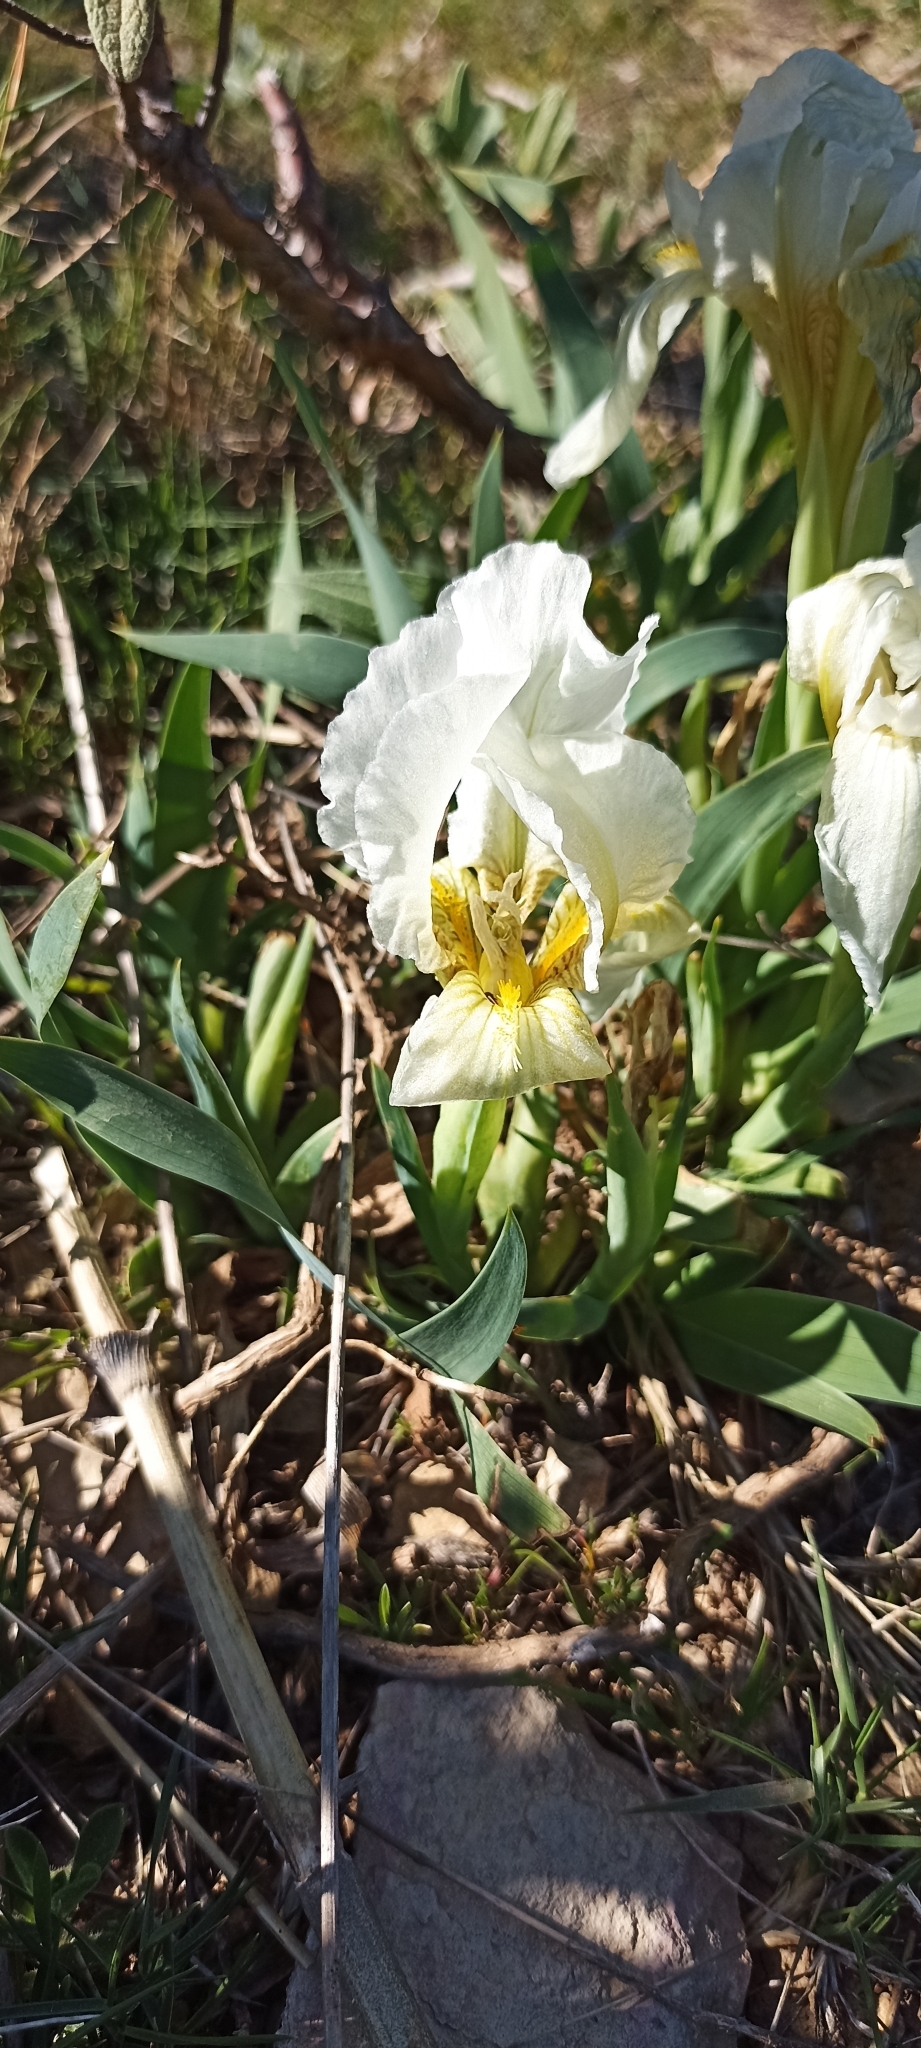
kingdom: Plantae
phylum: Tracheophyta
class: Liliopsida
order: Asparagales
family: Iridaceae
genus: Iris
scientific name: Iris lutescens
